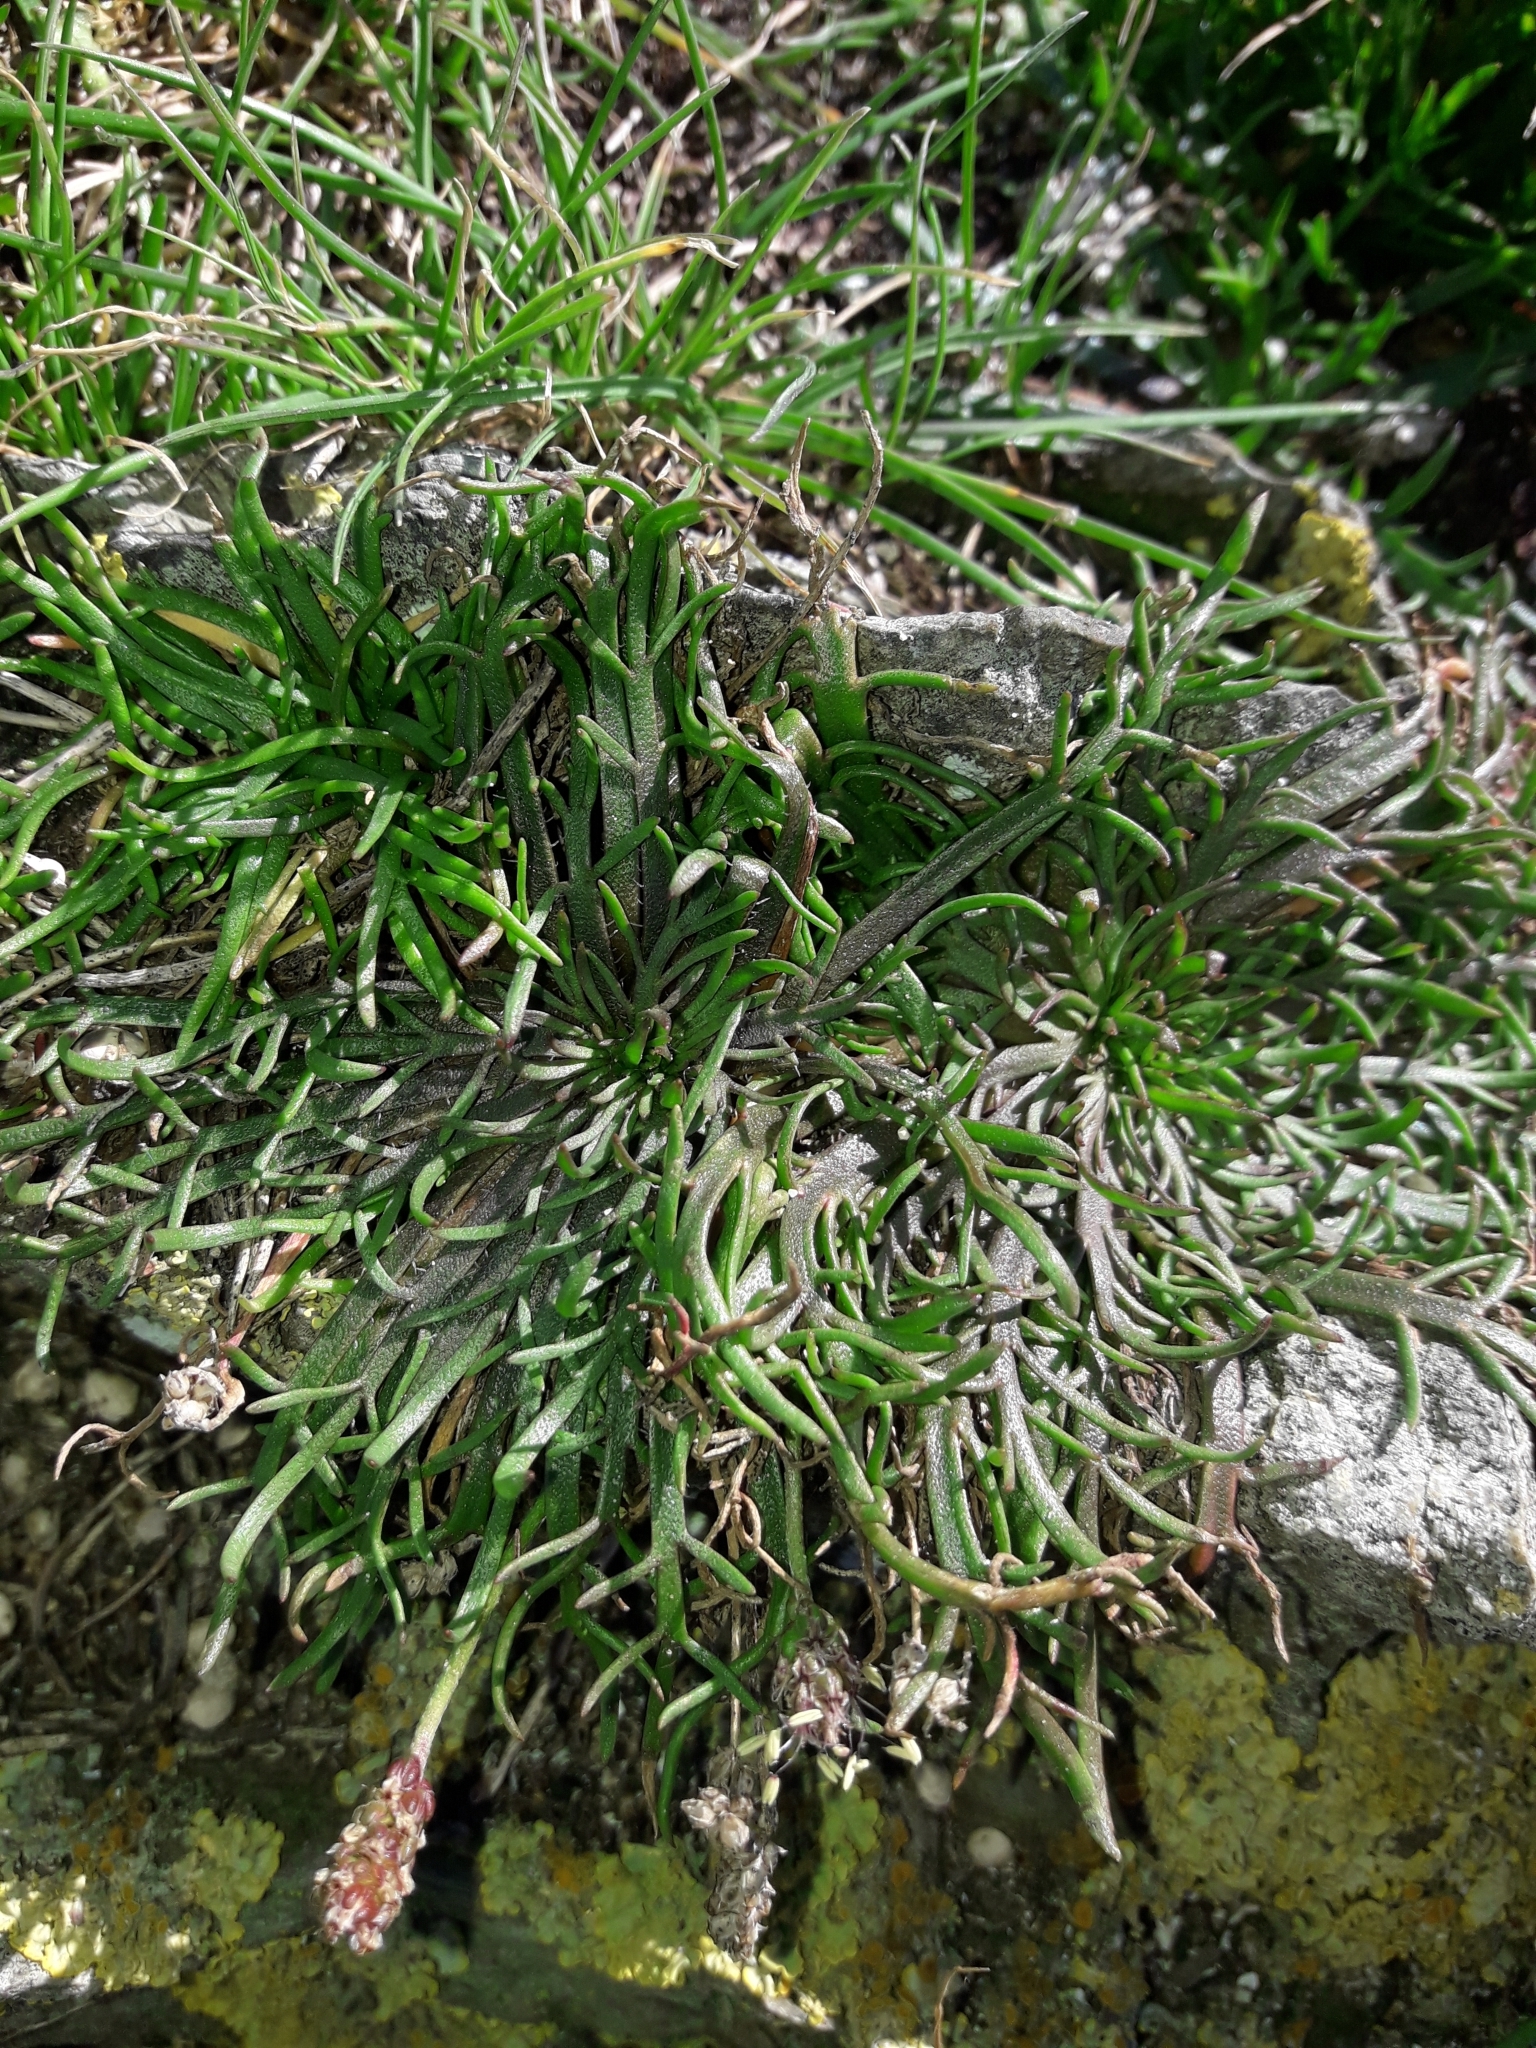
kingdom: Plantae
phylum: Tracheophyta
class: Magnoliopsida
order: Lamiales
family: Plantaginaceae
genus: Plantago
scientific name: Plantago coronopus
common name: Buck's-horn plantain
